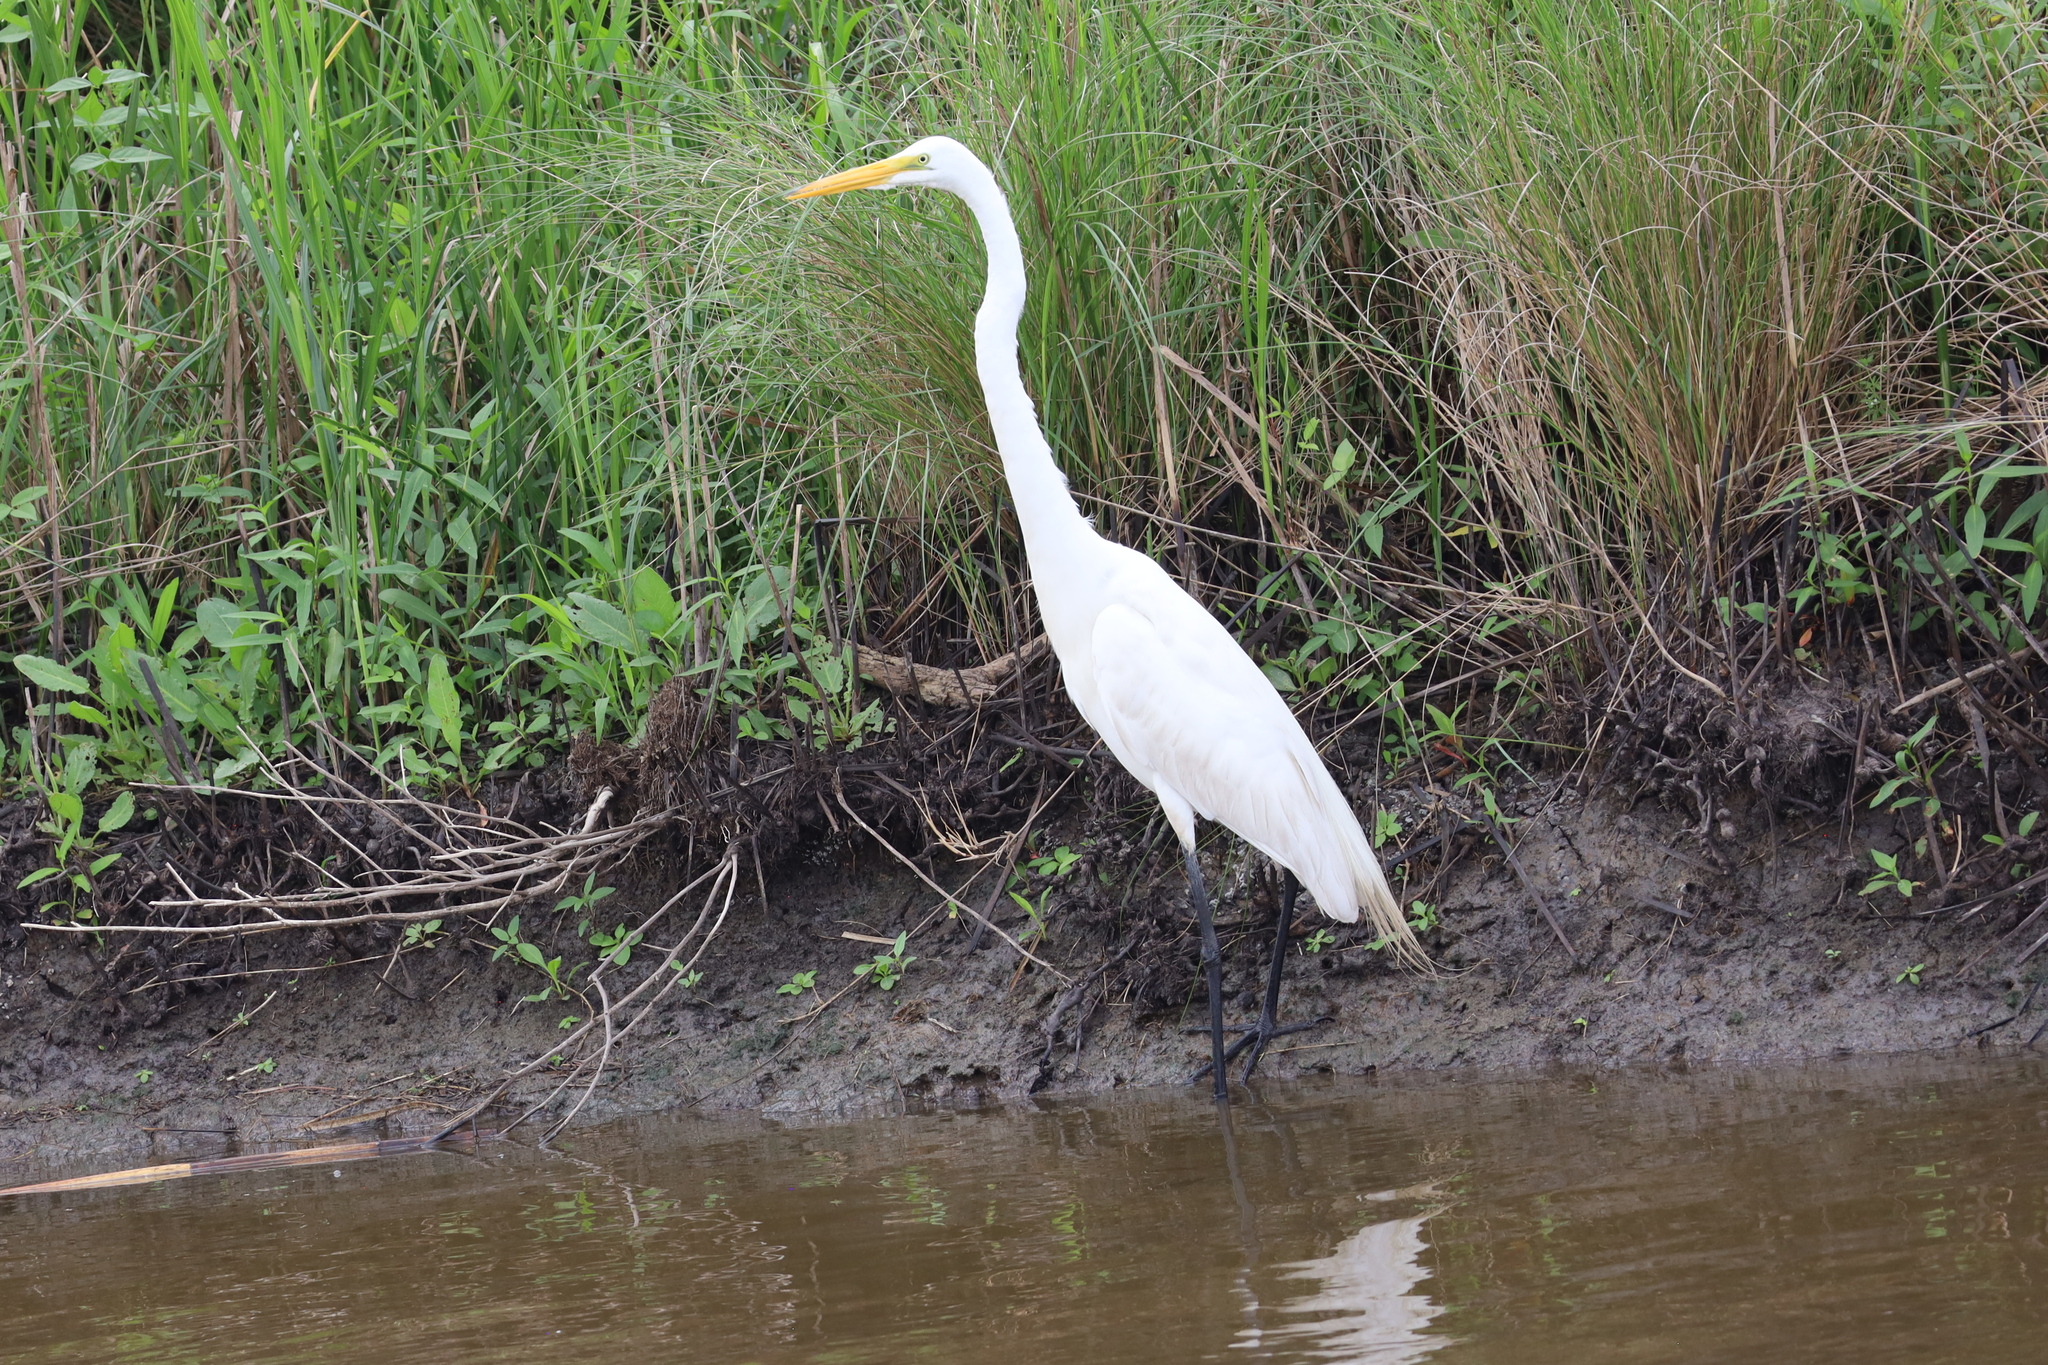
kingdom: Animalia
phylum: Chordata
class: Aves
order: Pelecaniformes
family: Ardeidae
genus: Ardea
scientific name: Ardea alba
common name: Great egret
